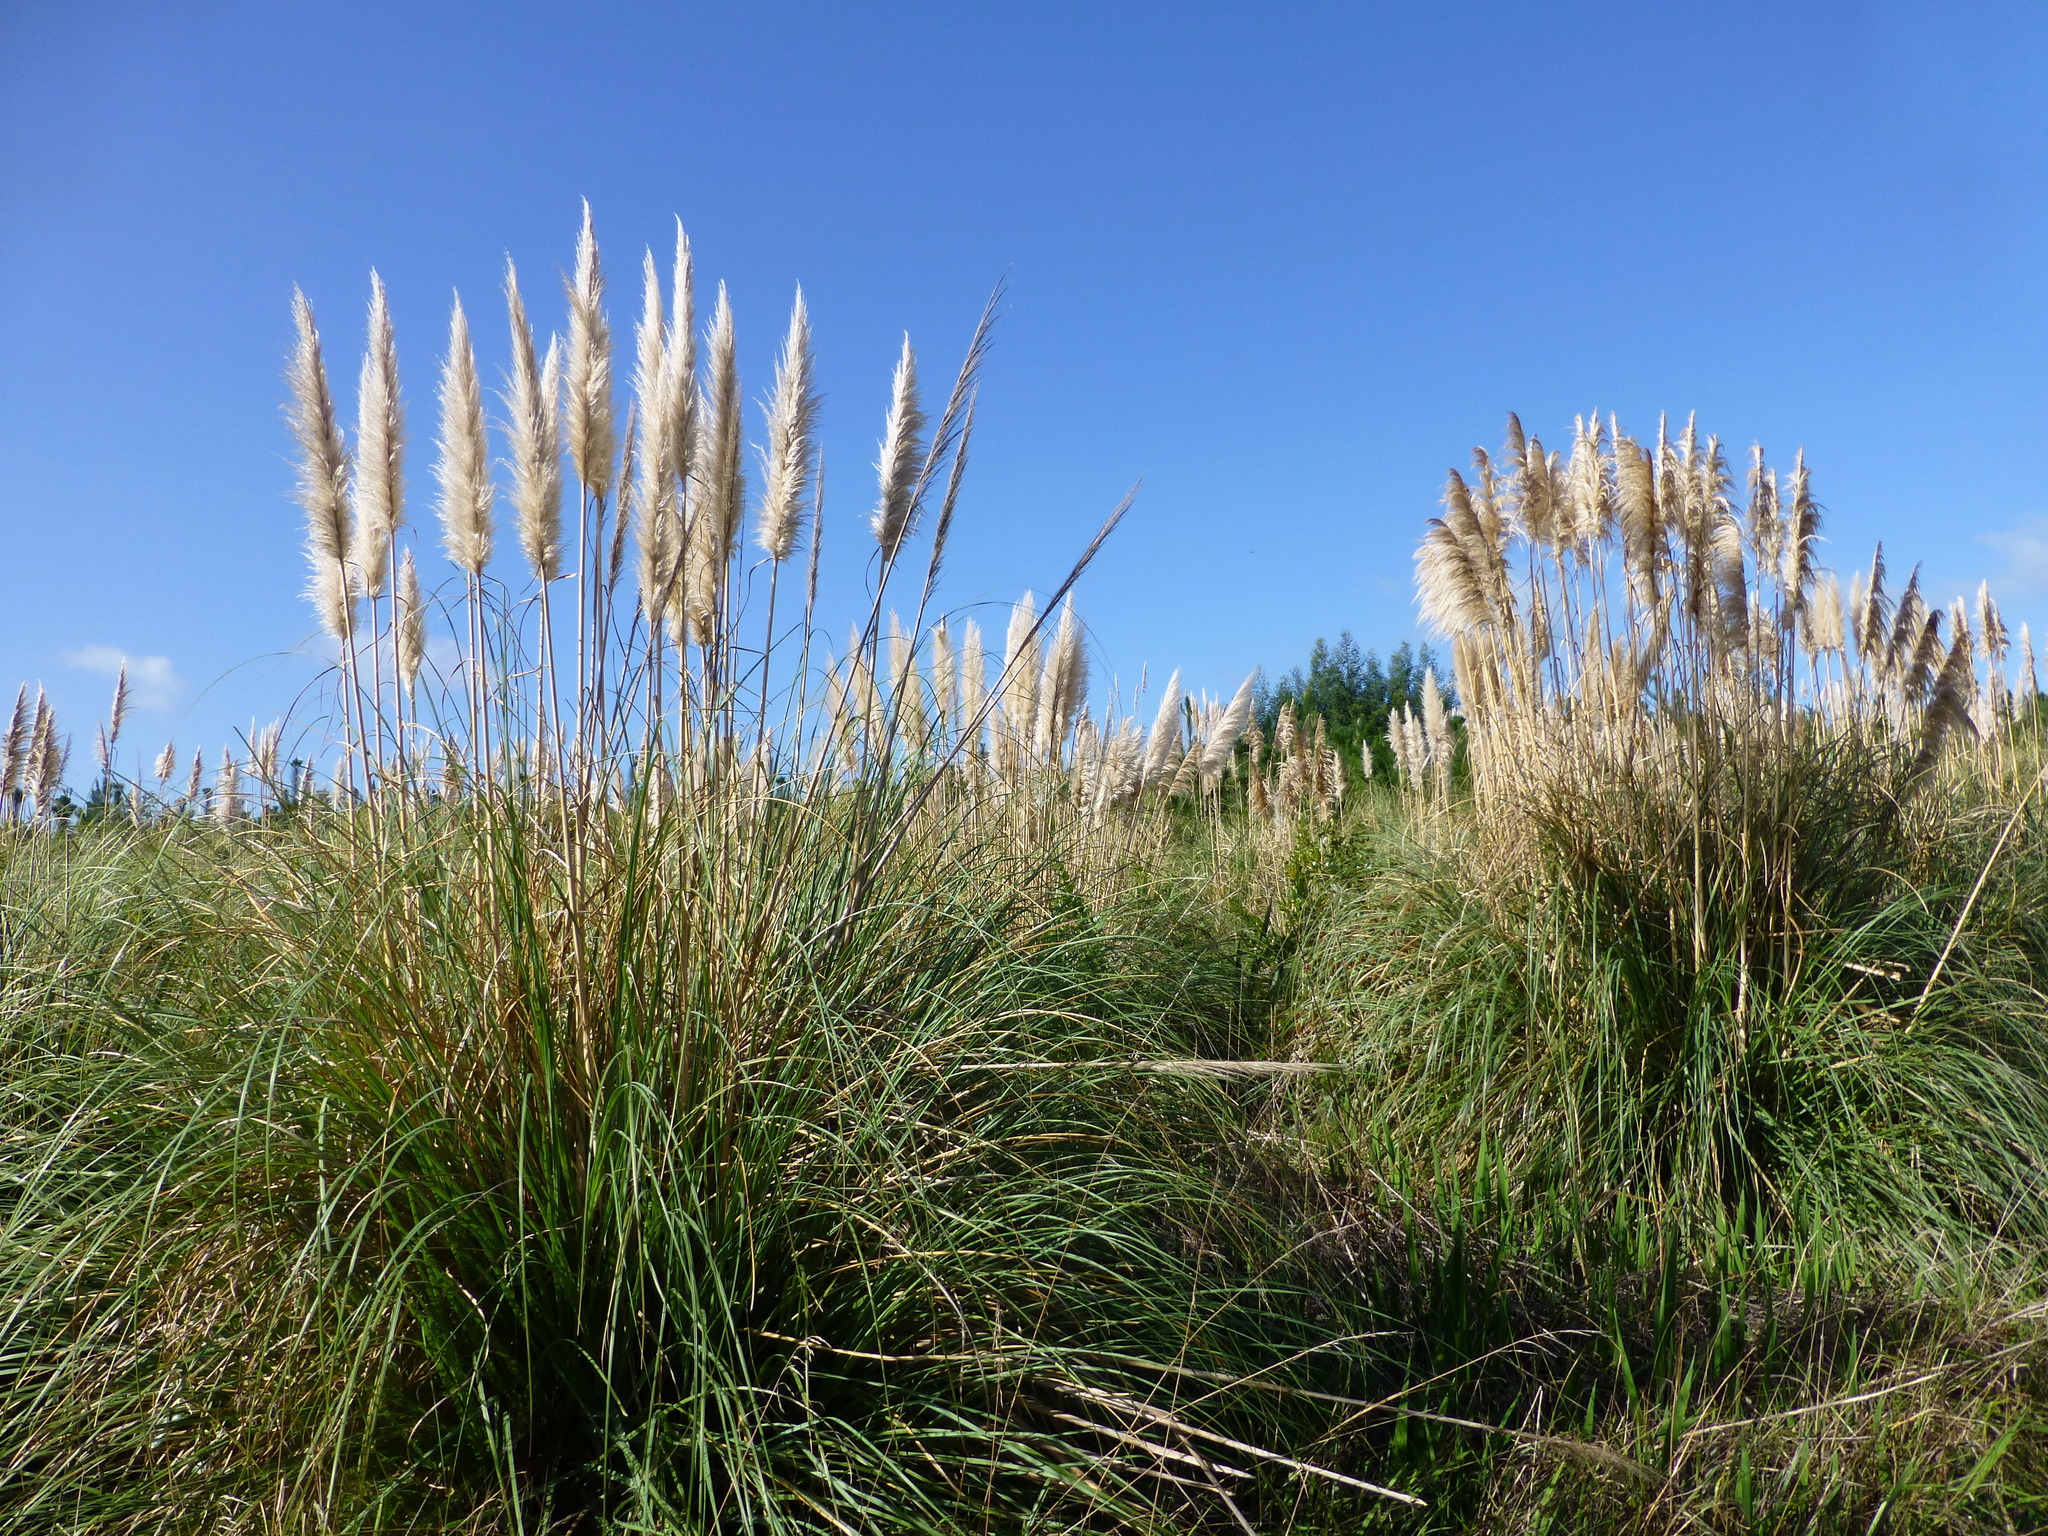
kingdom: Plantae
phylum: Tracheophyta
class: Liliopsida
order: Poales
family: Poaceae
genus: Cortaderia
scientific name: Cortaderia selloana
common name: Uruguayan pampas grass
